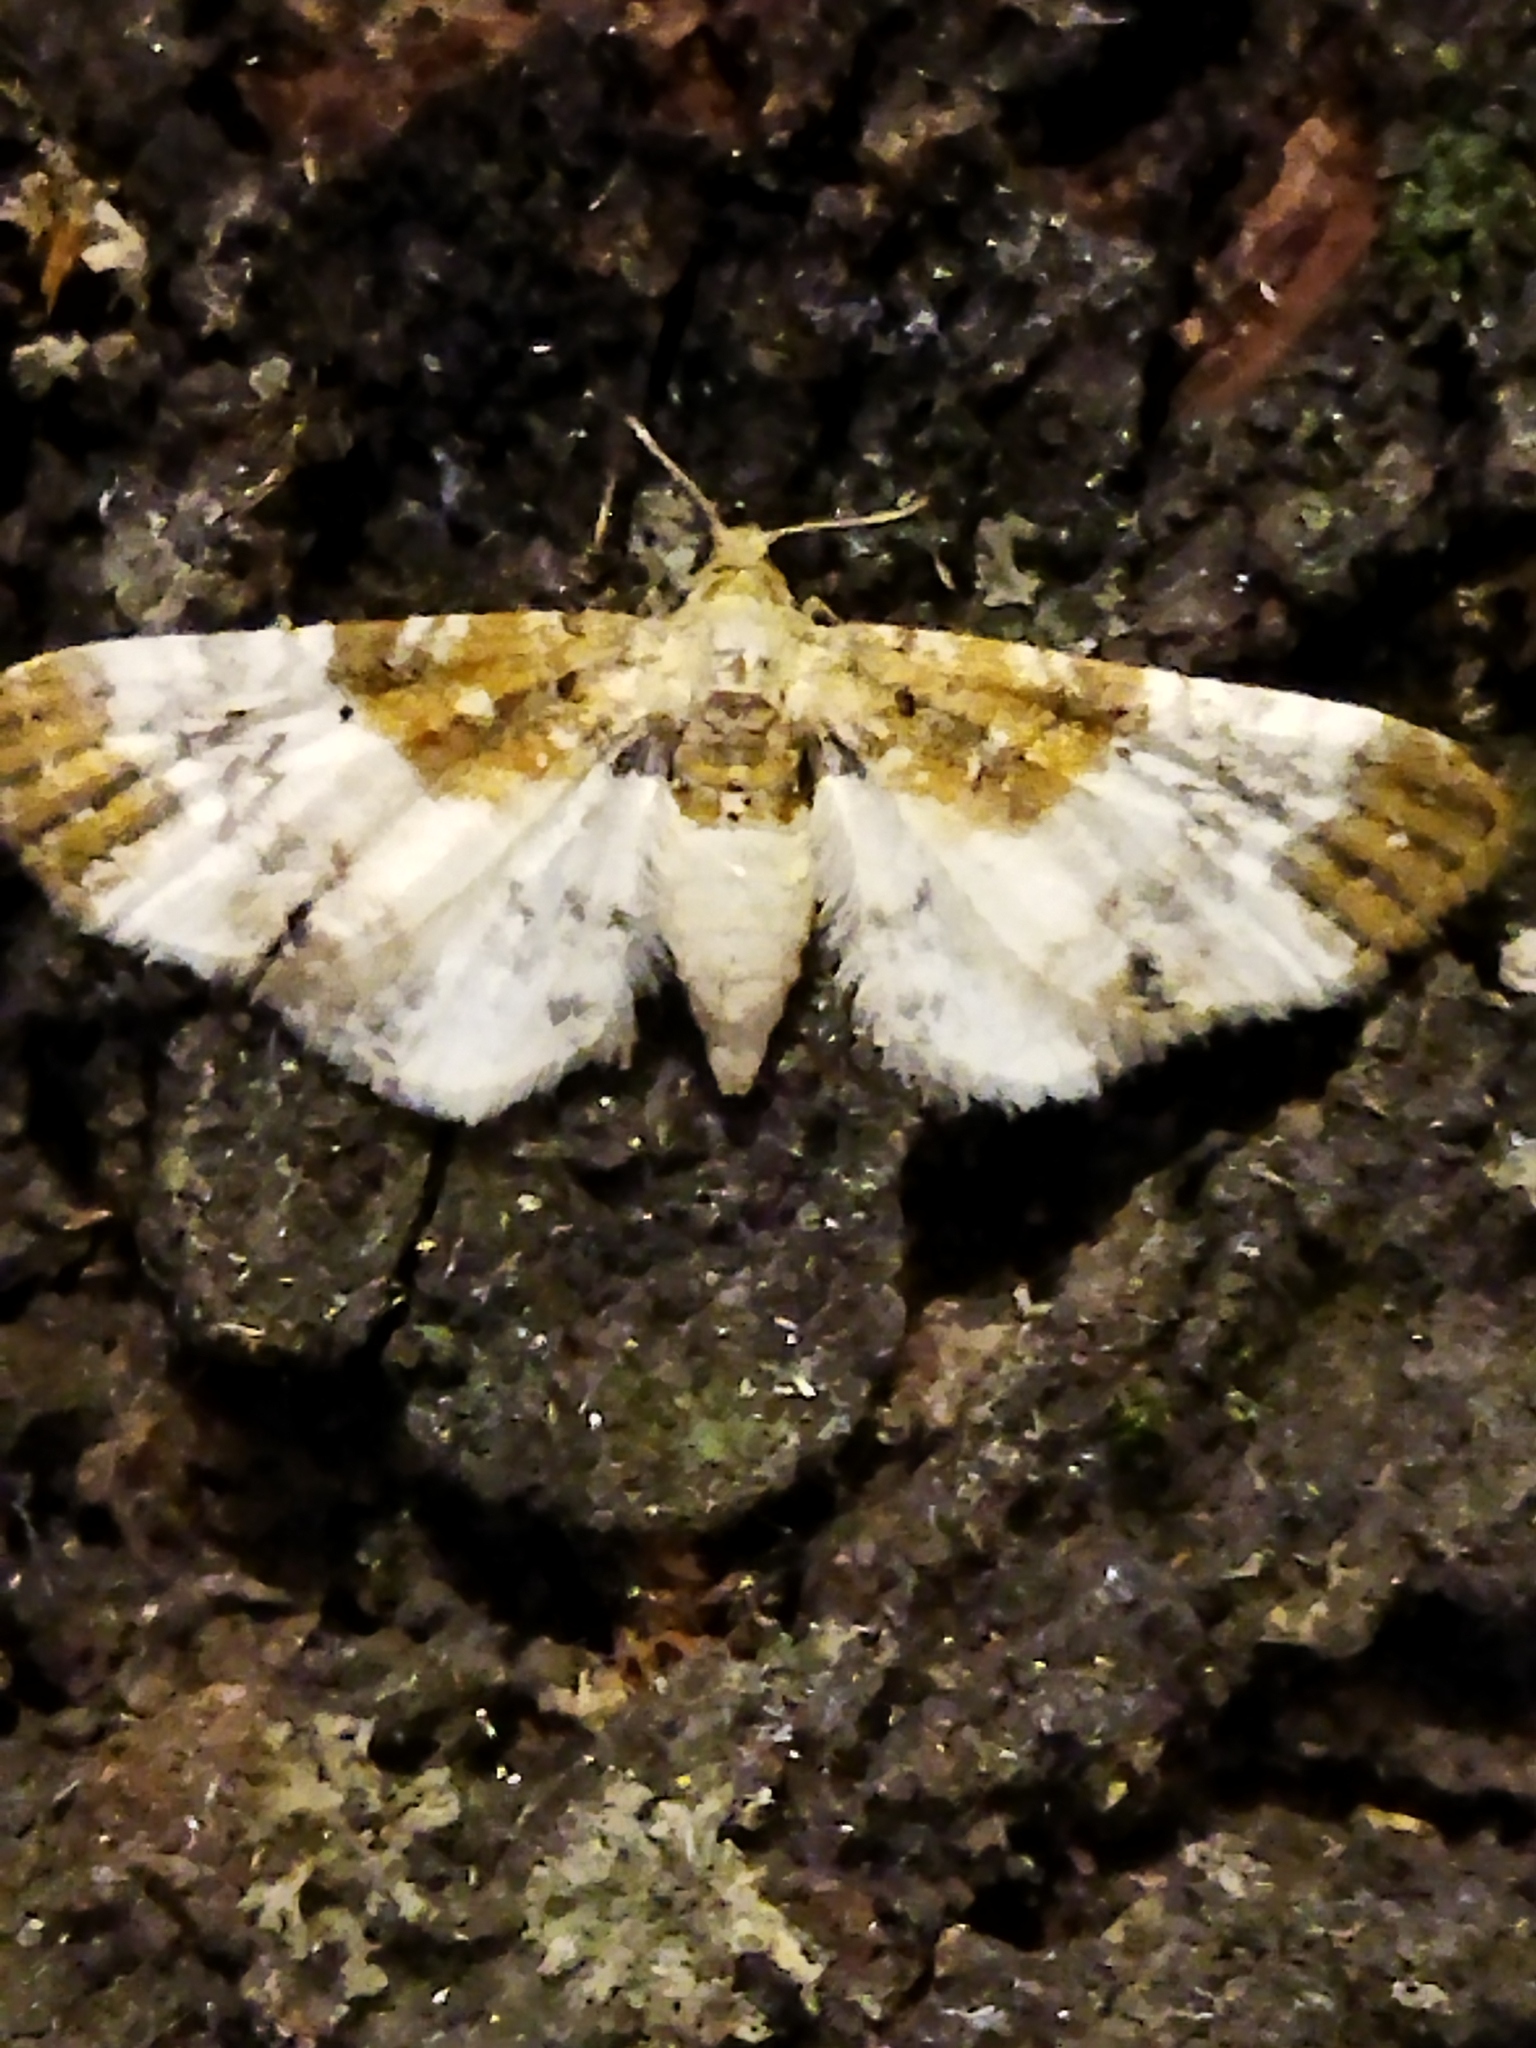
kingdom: Animalia
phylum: Arthropoda
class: Insecta
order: Lepidoptera
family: Geometridae
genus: Eupithecia
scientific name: Eupithecia breviculata
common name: Rusty-shouldered pug
